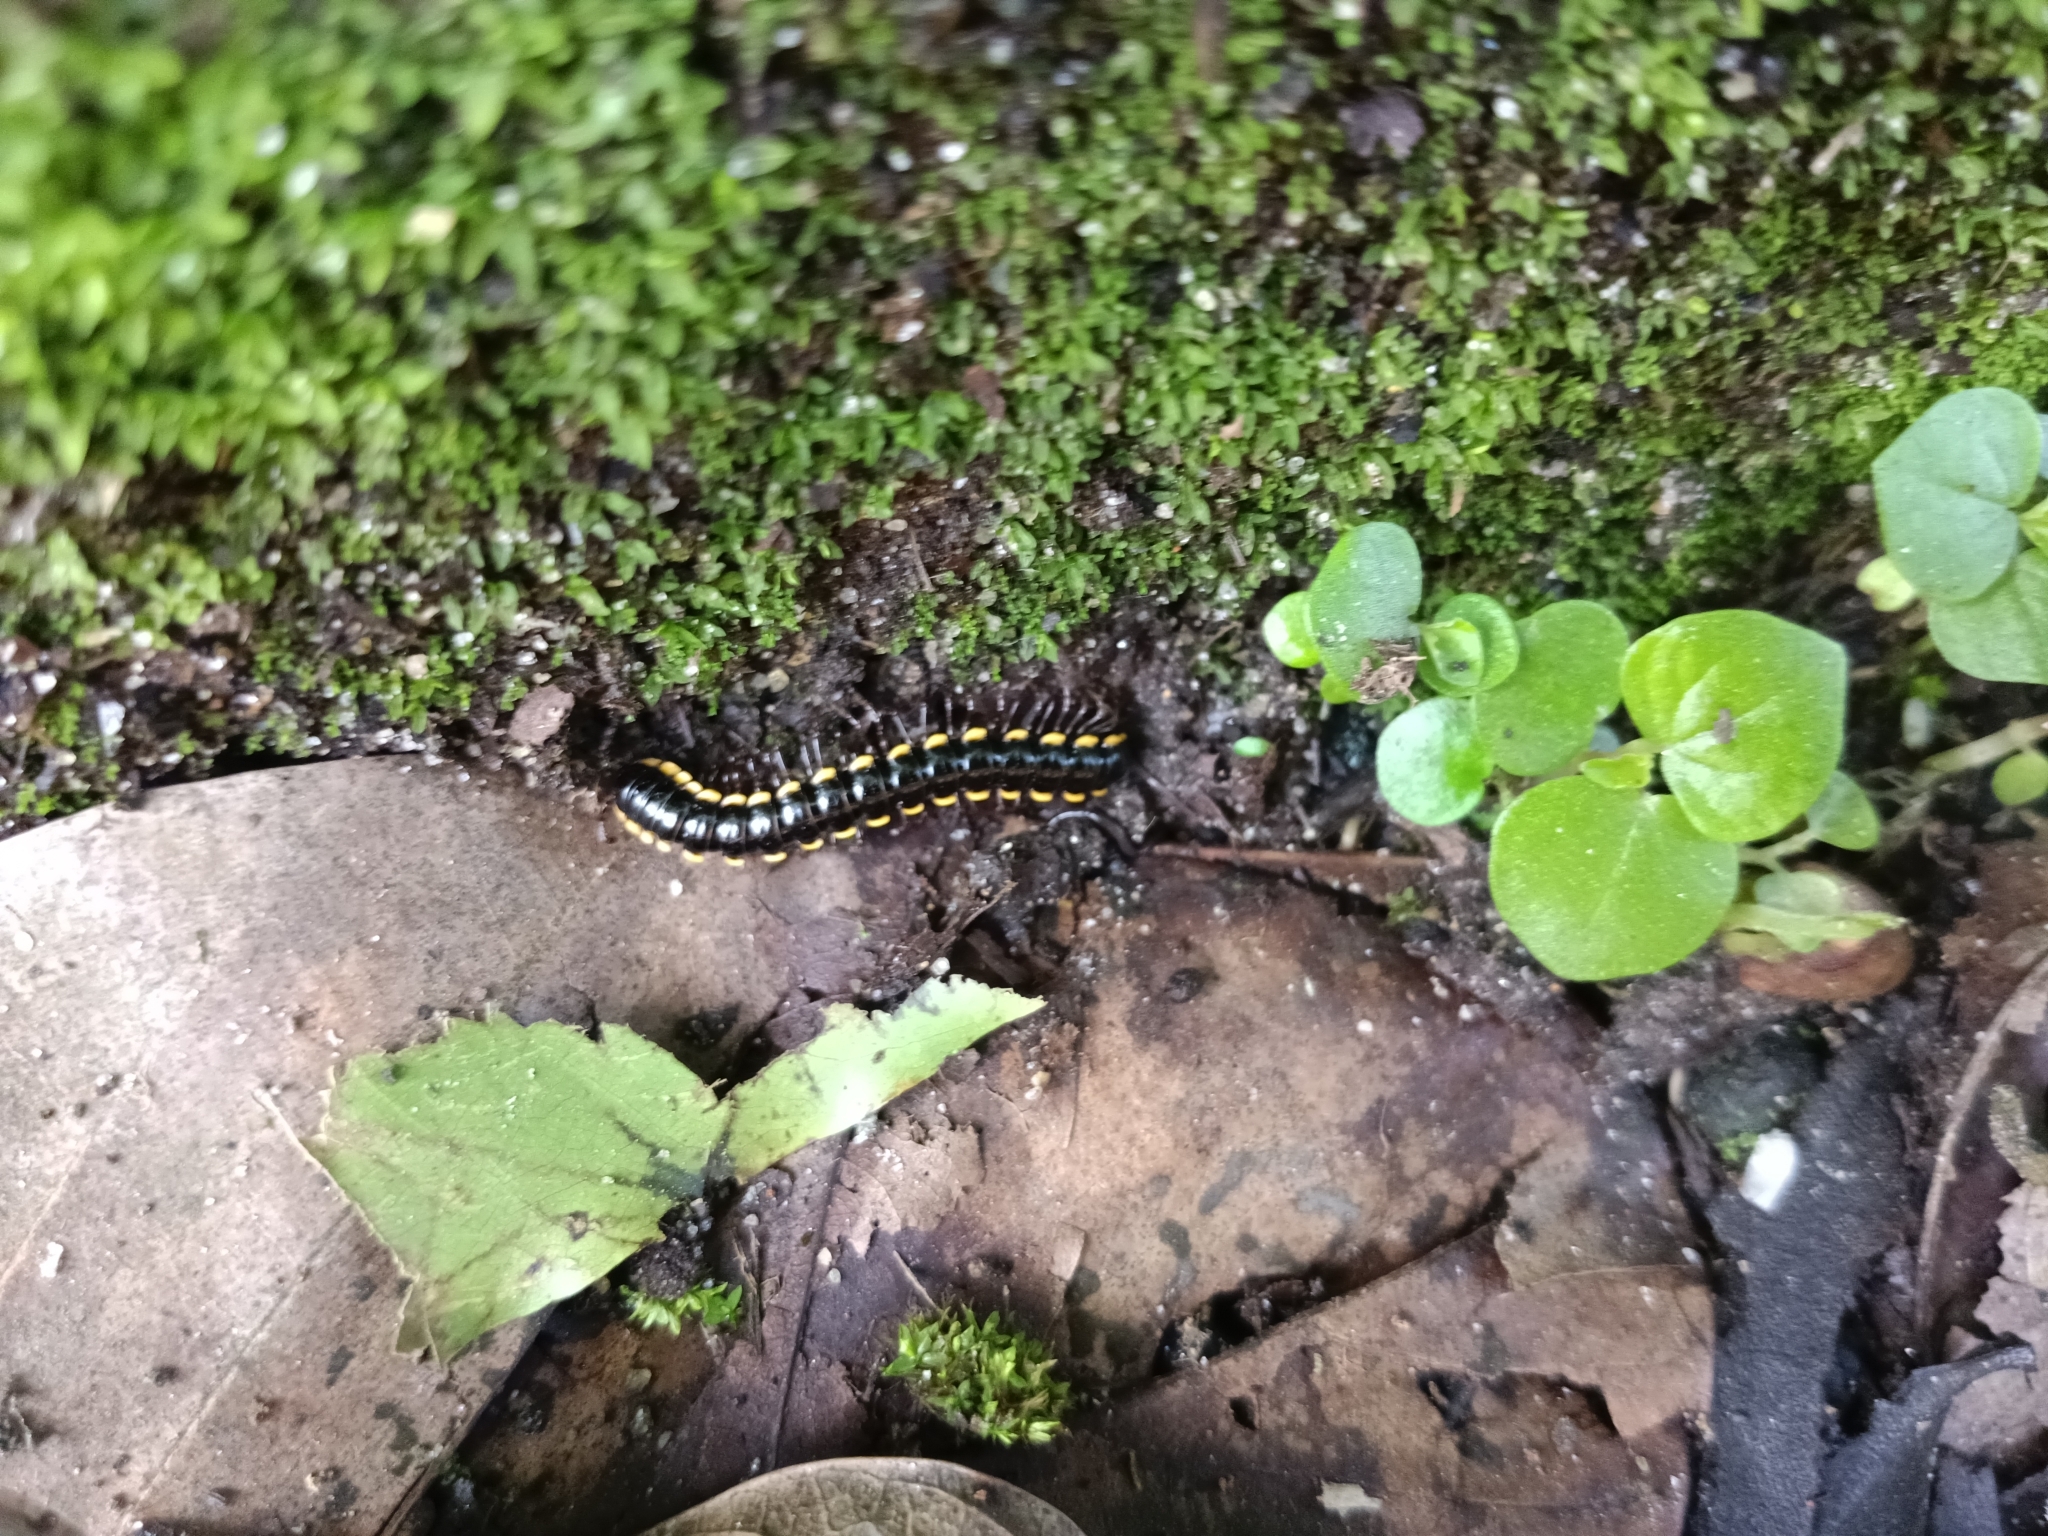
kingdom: Animalia
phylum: Arthropoda
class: Diplopoda
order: Polydesmida
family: Paradoxosomatidae
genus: Anoplodesmus
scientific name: Anoplodesmus saussurii
